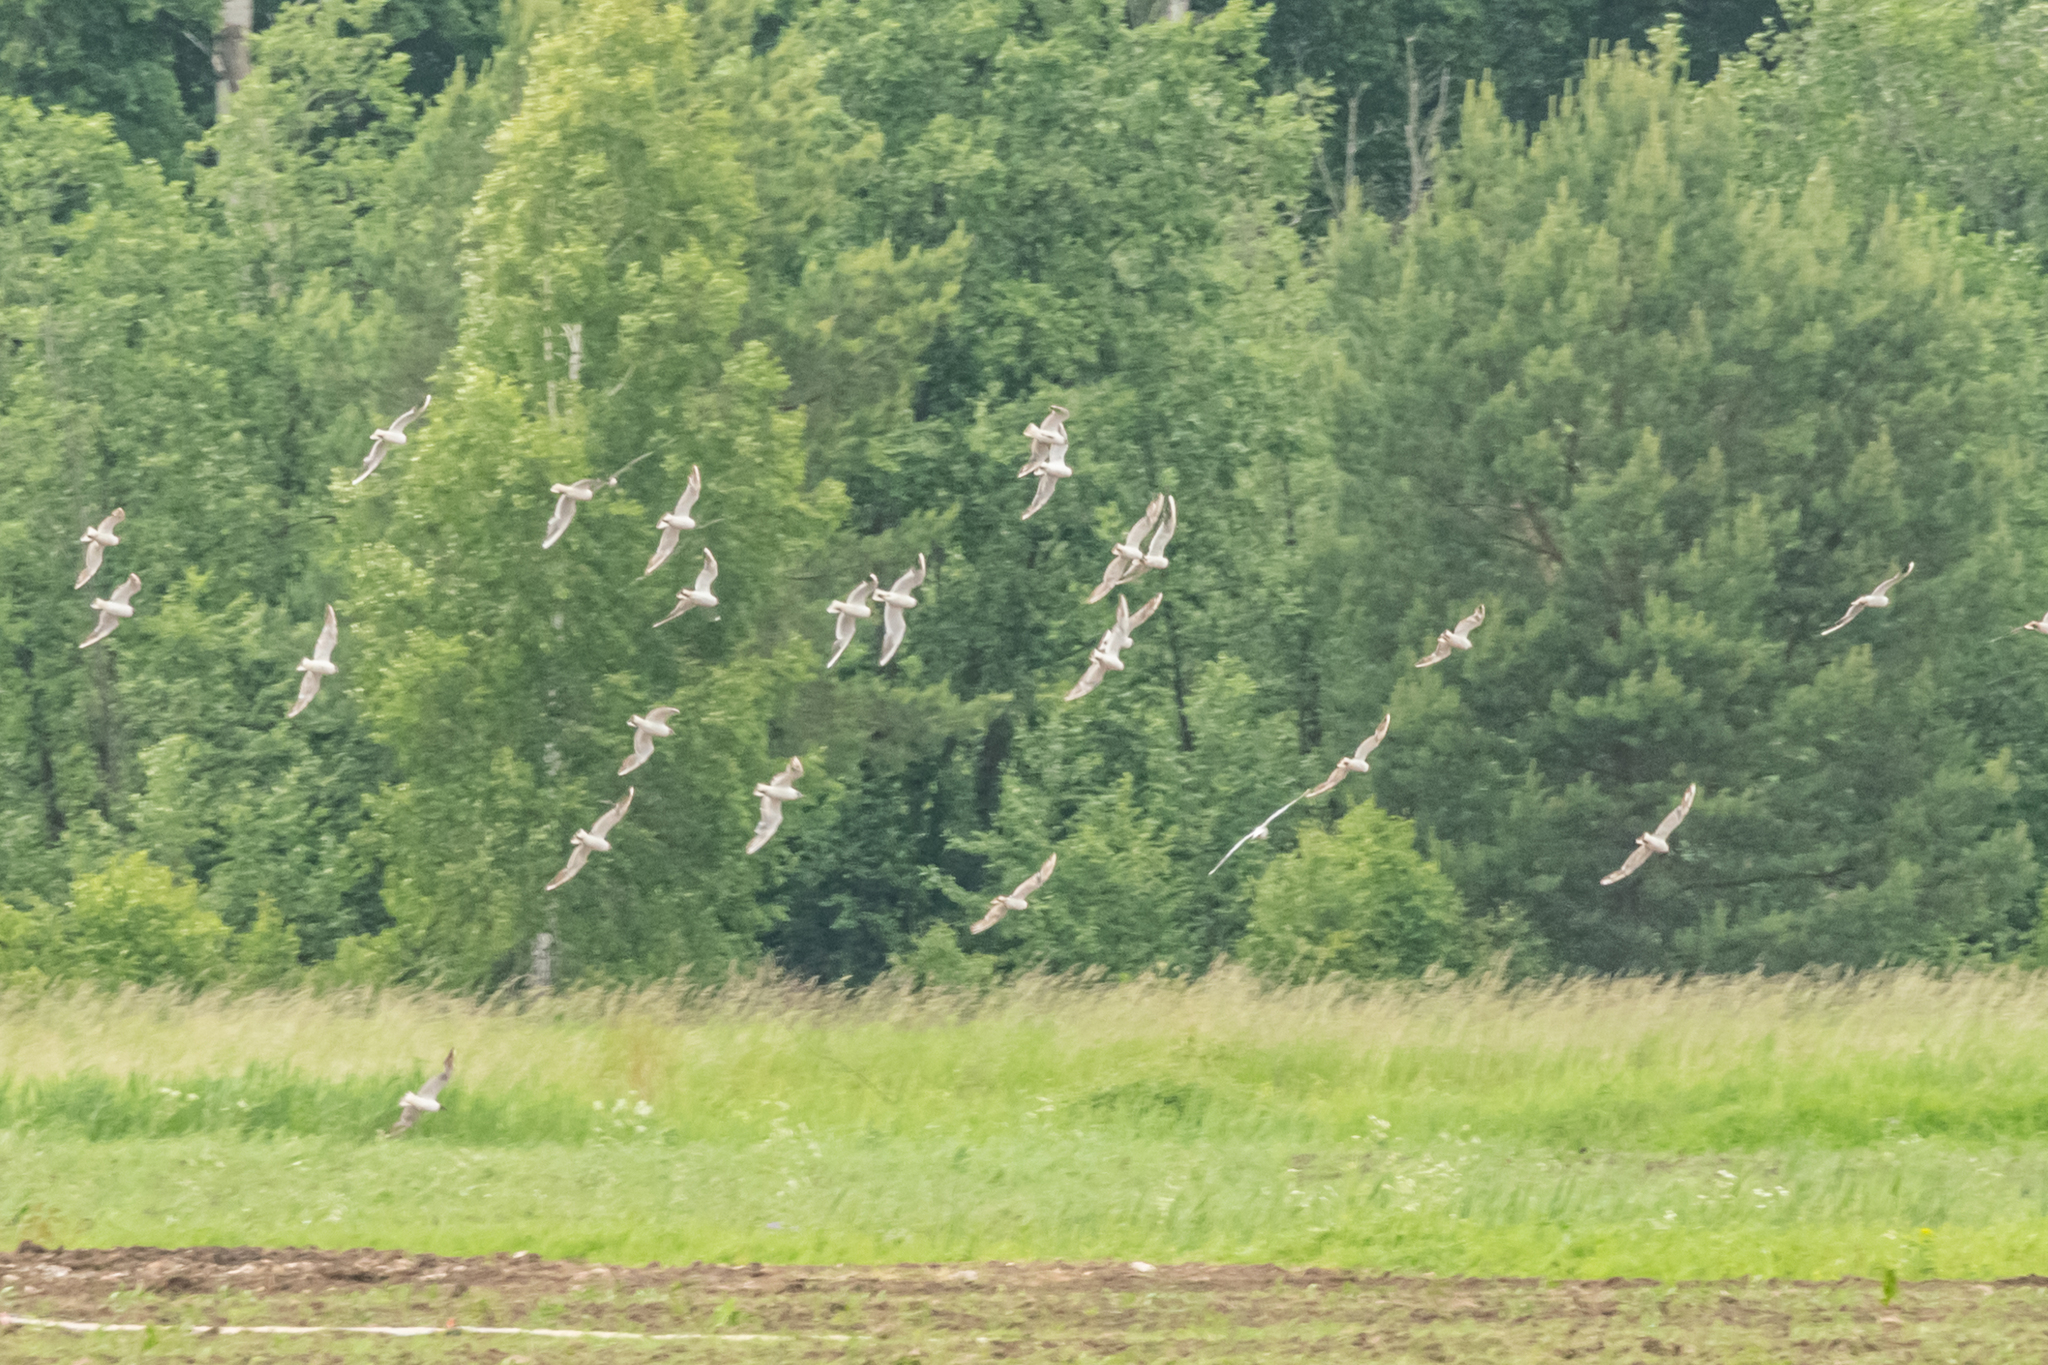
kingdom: Animalia
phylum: Chordata
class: Aves
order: Charadriiformes
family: Laridae
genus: Chroicocephalus
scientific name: Chroicocephalus ridibundus
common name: Black-headed gull
